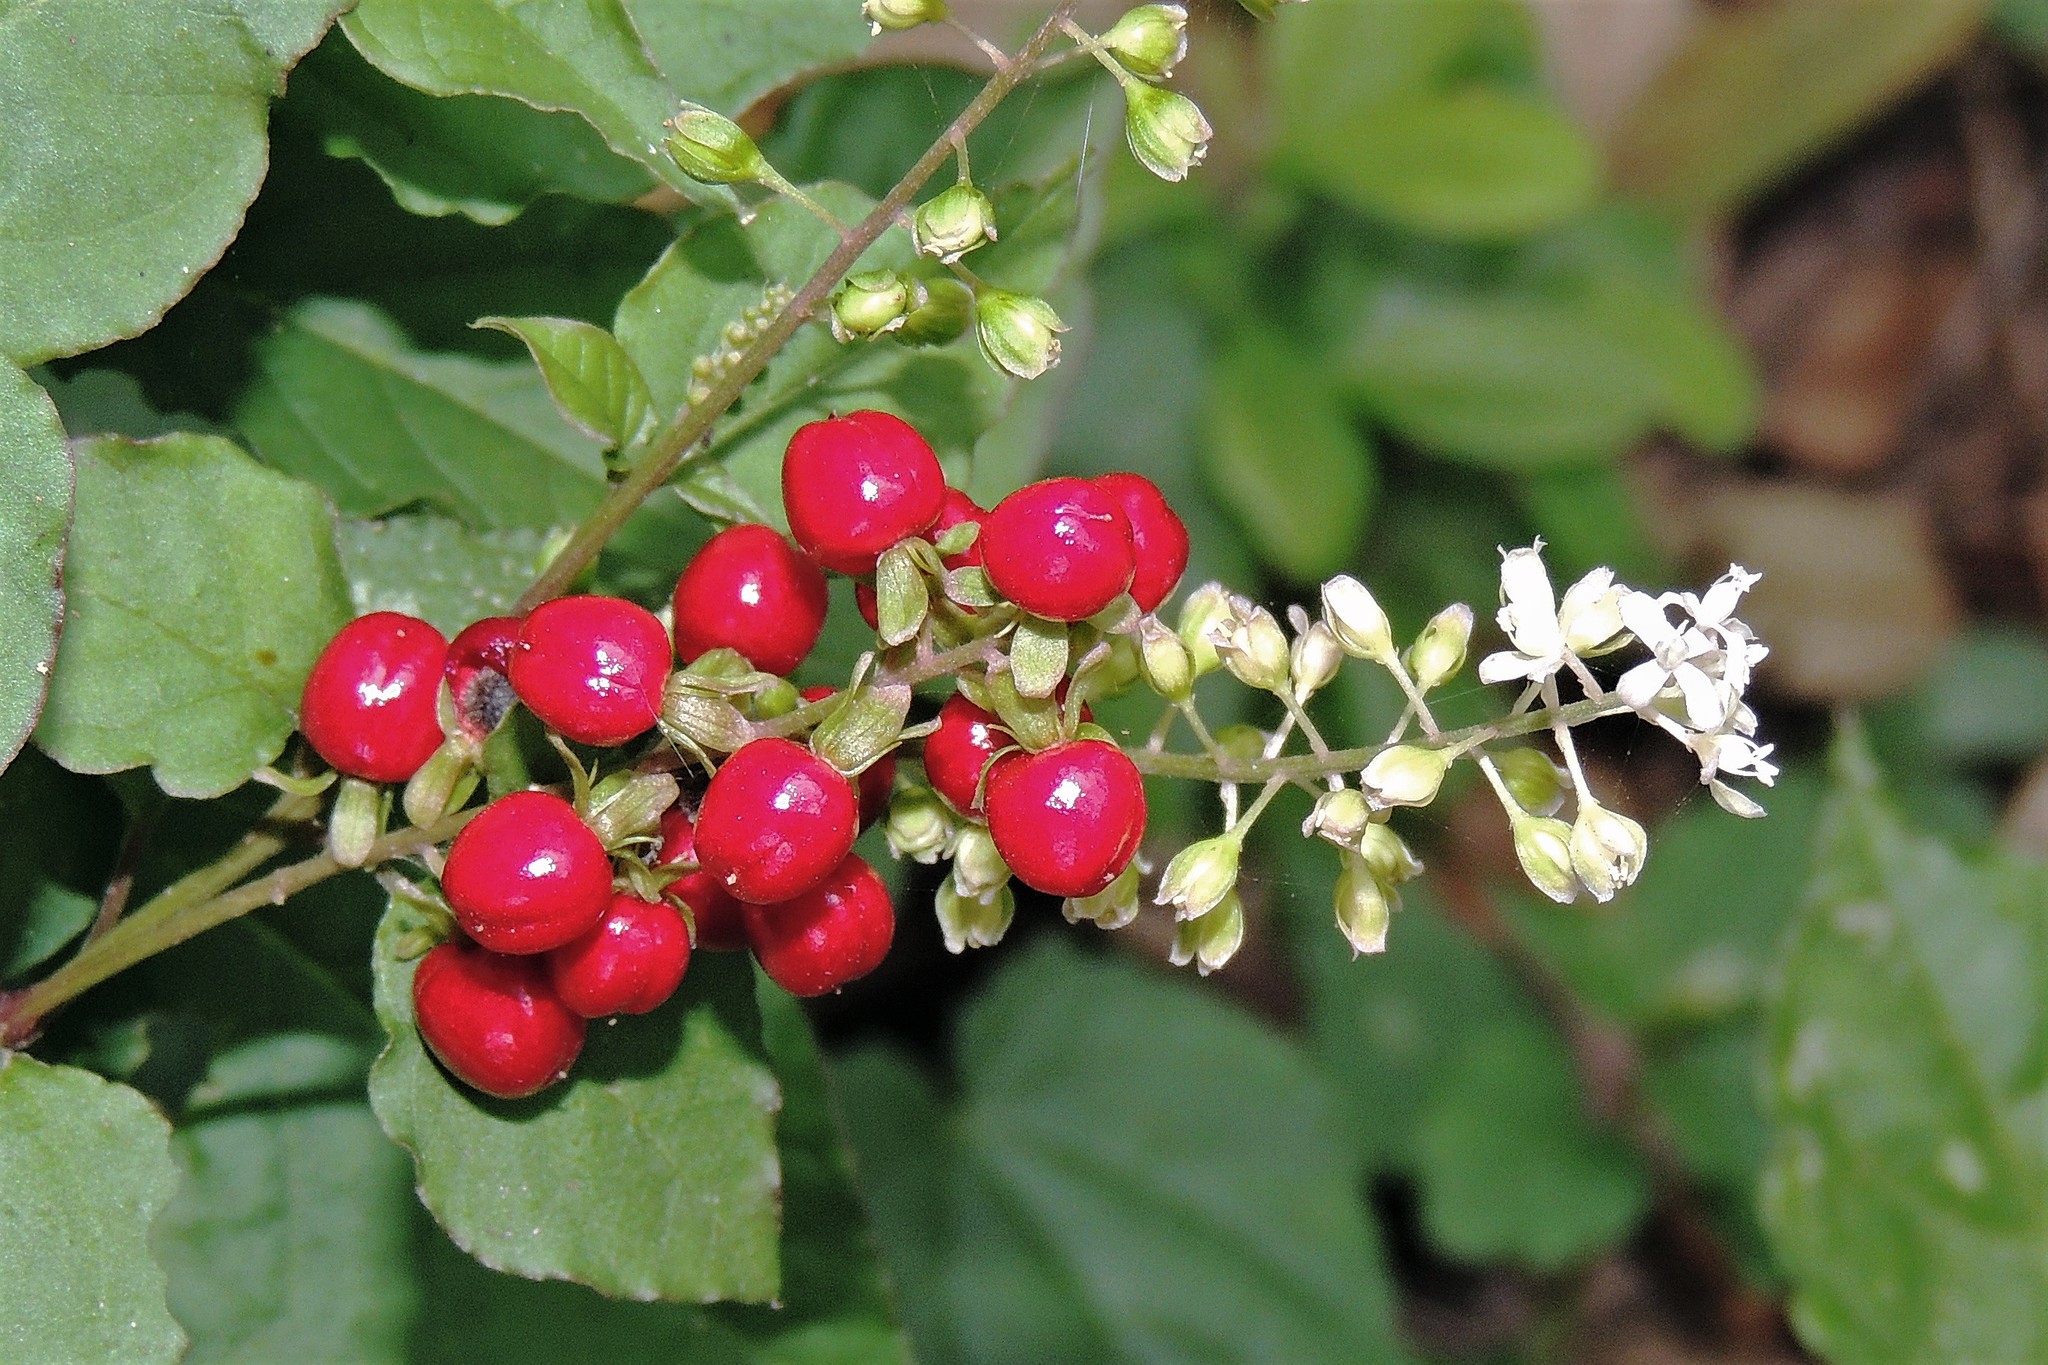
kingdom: Plantae
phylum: Tracheophyta
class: Magnoliopsida
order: Caryophyllales
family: Phytolaccaceae
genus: Rivina
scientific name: Rivina humilis
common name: Rougeplant
